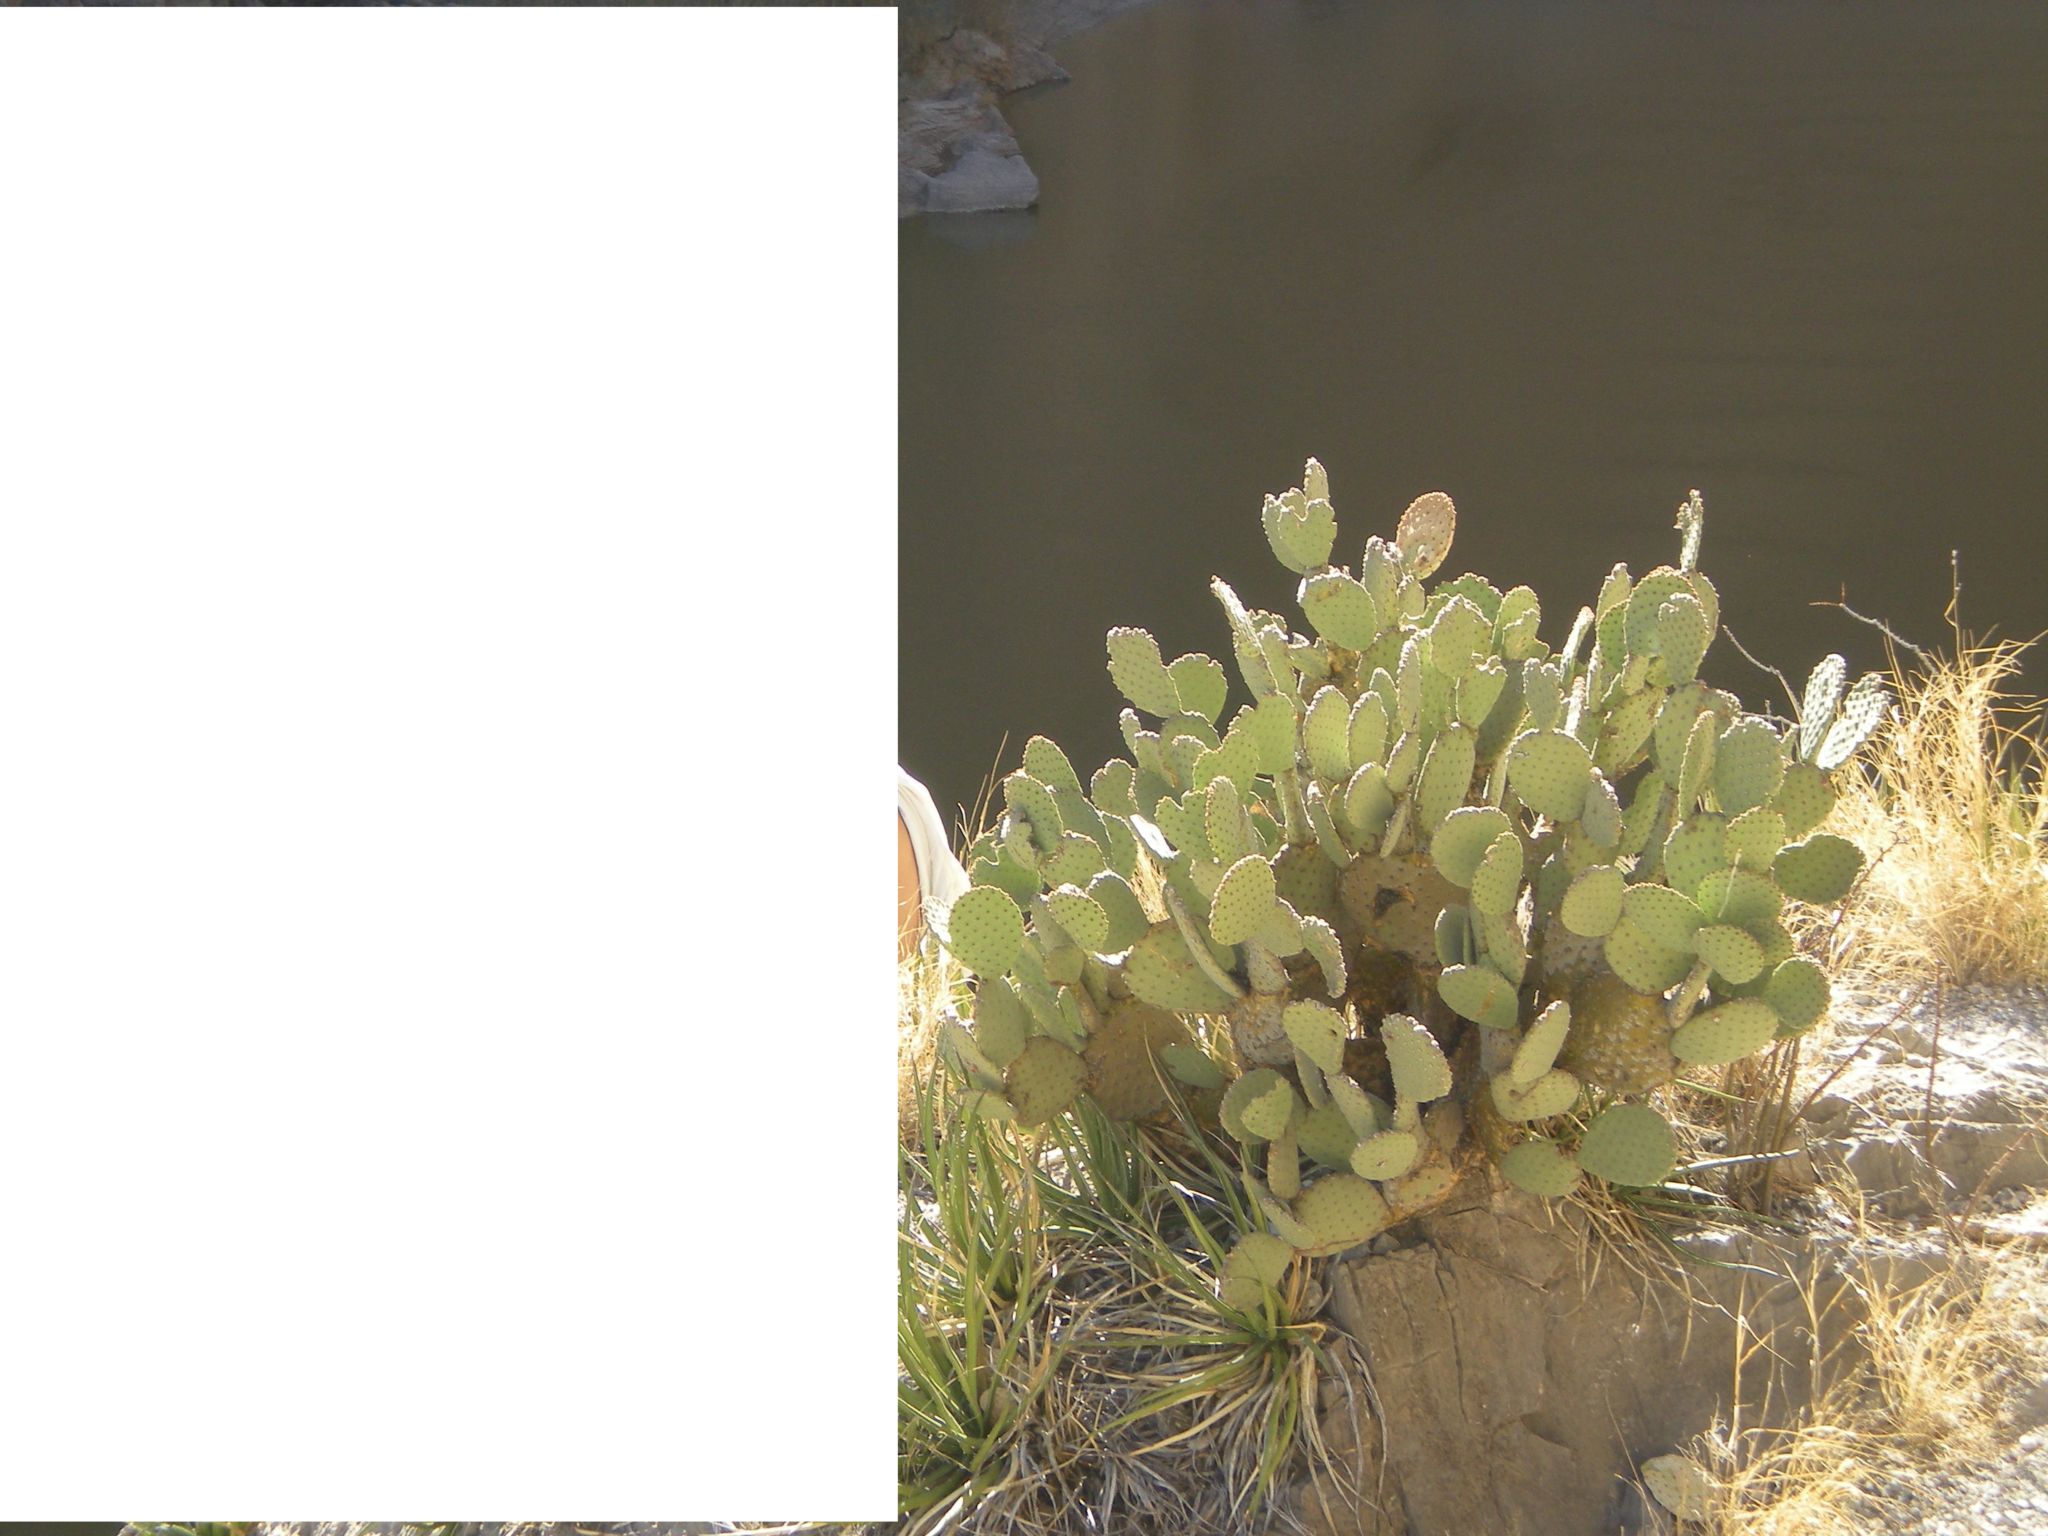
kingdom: Plantae
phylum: Tracheophyta
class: Magnoliopsida
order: Caryophyllales
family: Cactaceae
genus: Opuntia
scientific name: Opuntia rufida
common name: Blind pricklypear
